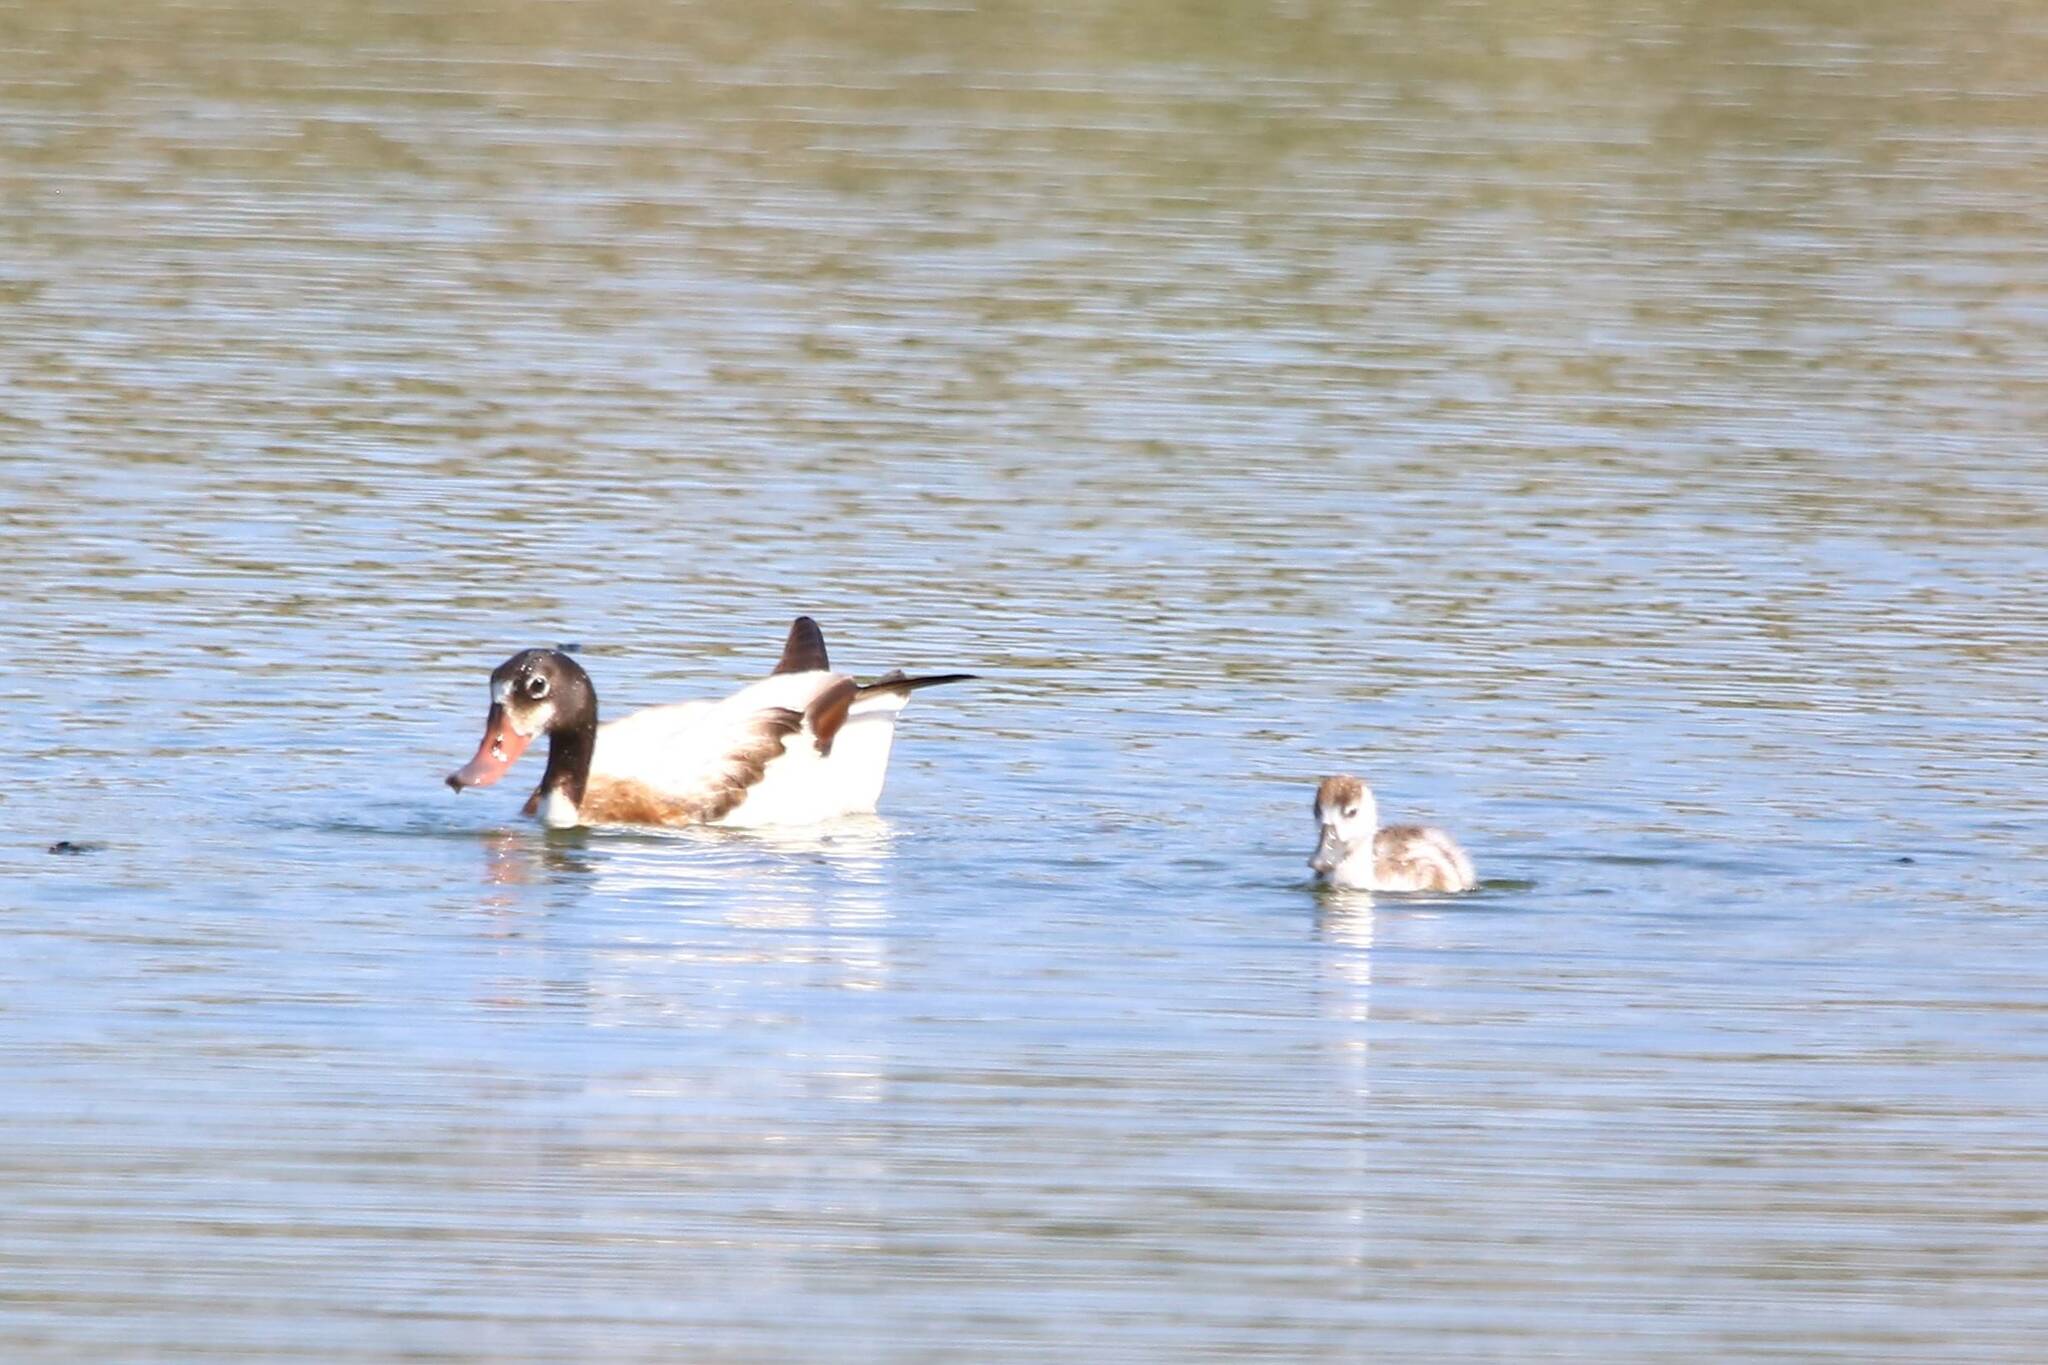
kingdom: Animalia
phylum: Chordata
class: Aves
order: Anseriformes
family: Anatidae
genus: Tadorna
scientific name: Tadorna tadorna
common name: Common shelduck
